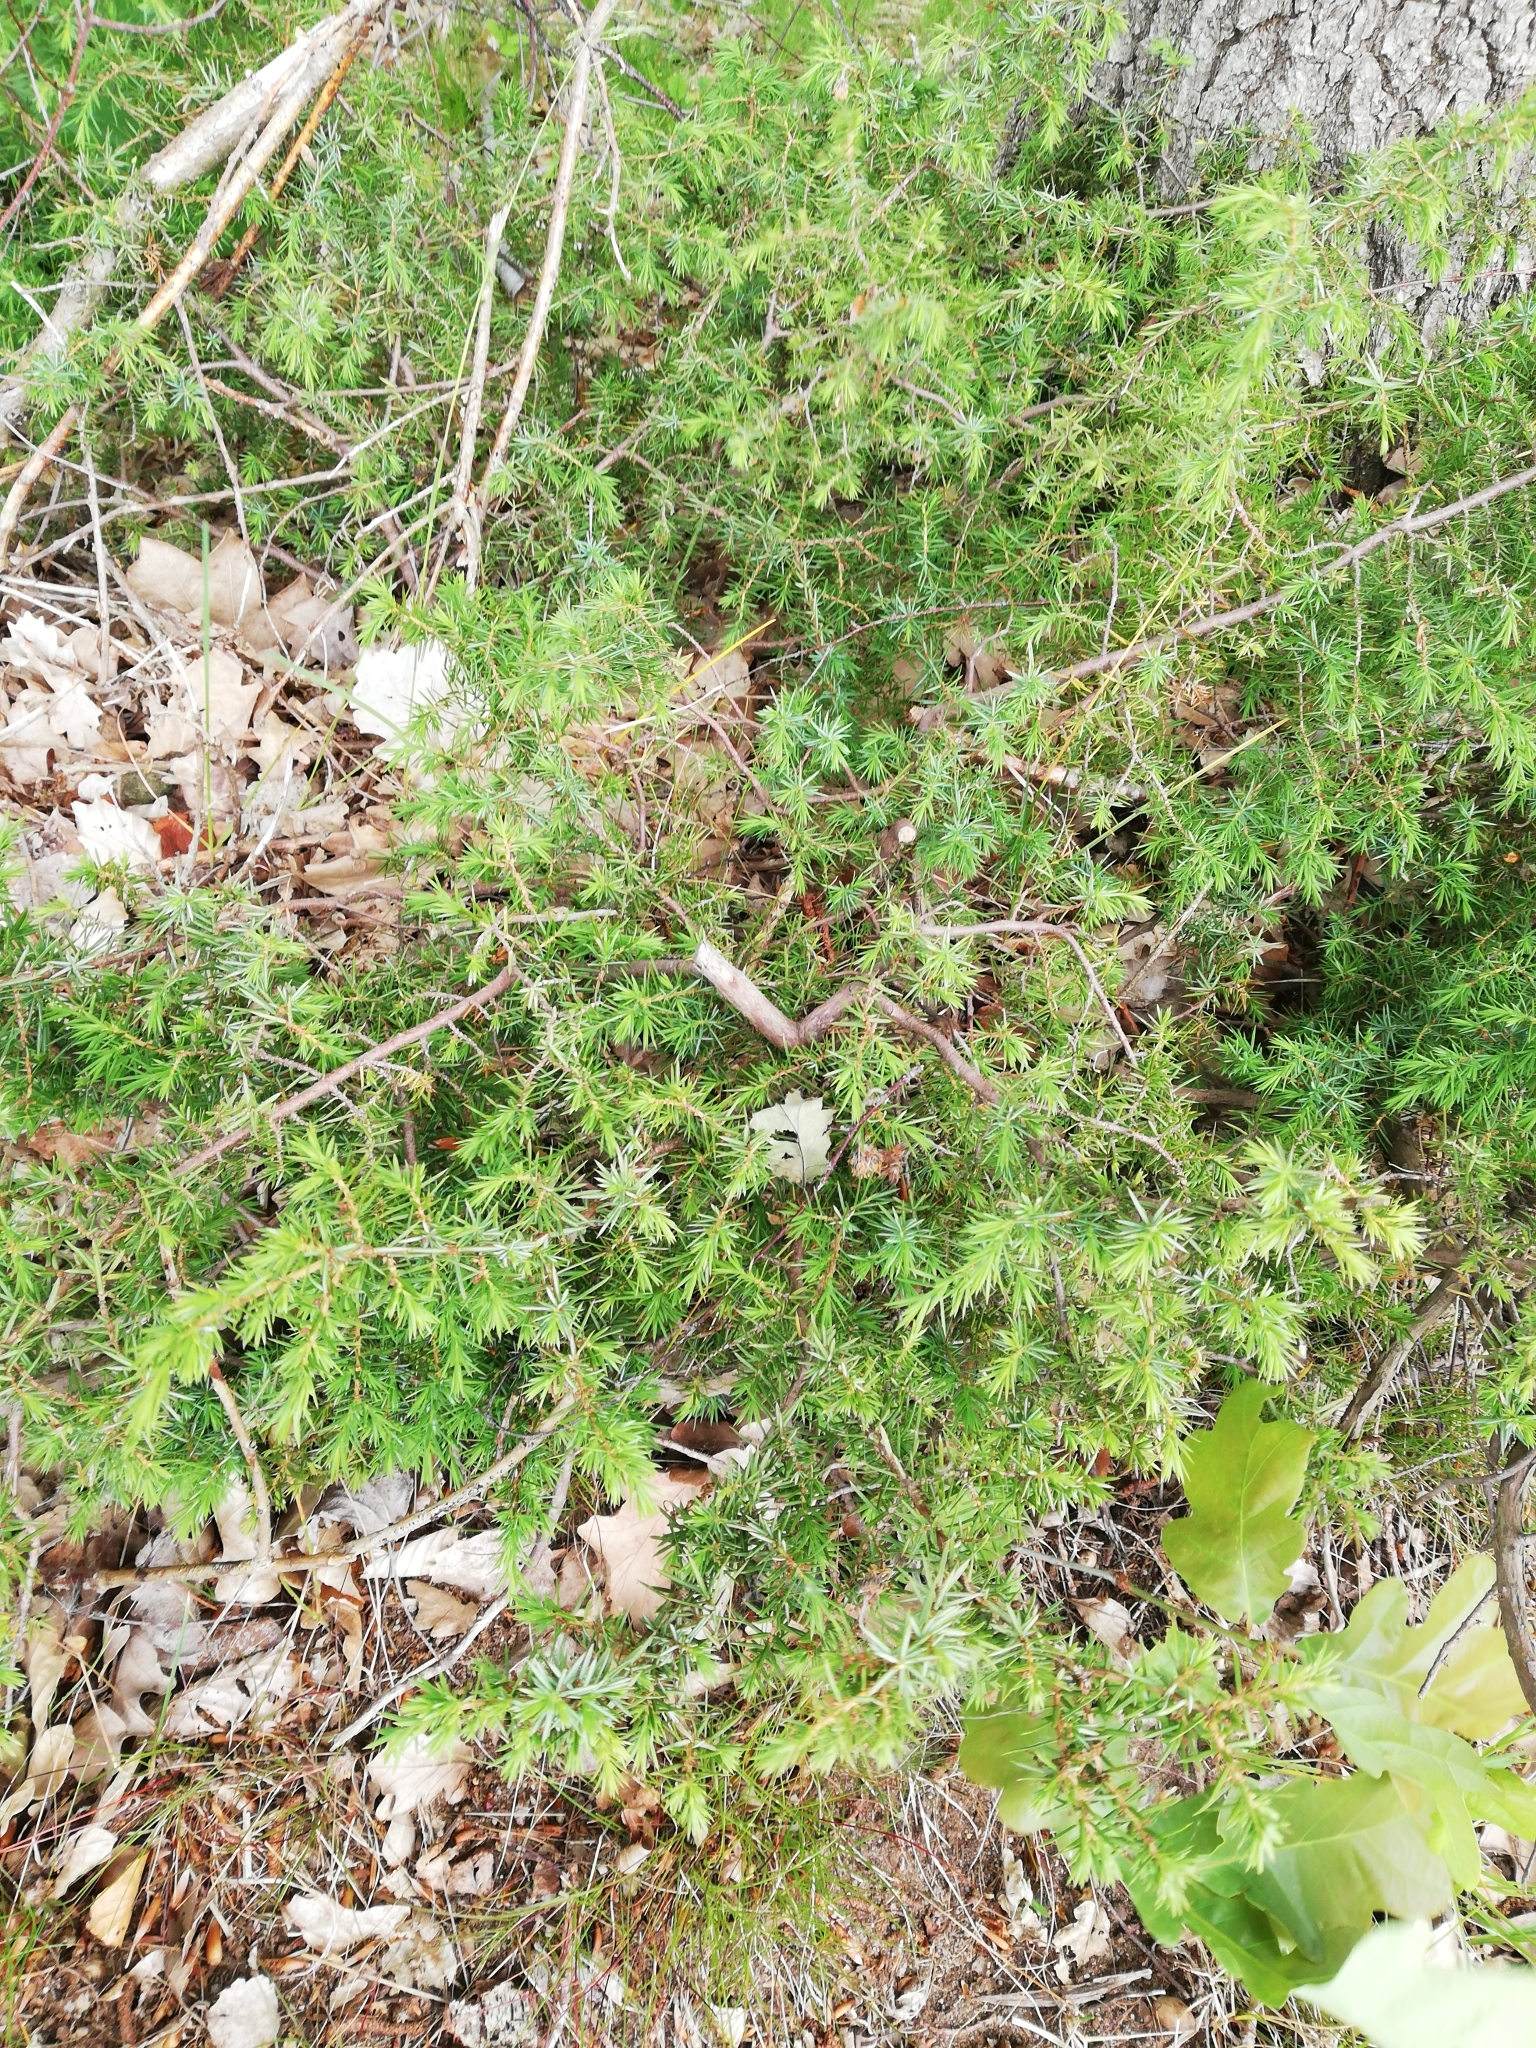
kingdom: Plantae
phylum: Tracheophyta
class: Pinopsida
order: Pinales
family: Cupressaceae
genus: Juniperus
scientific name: Juniperus communis
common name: Common juniper
